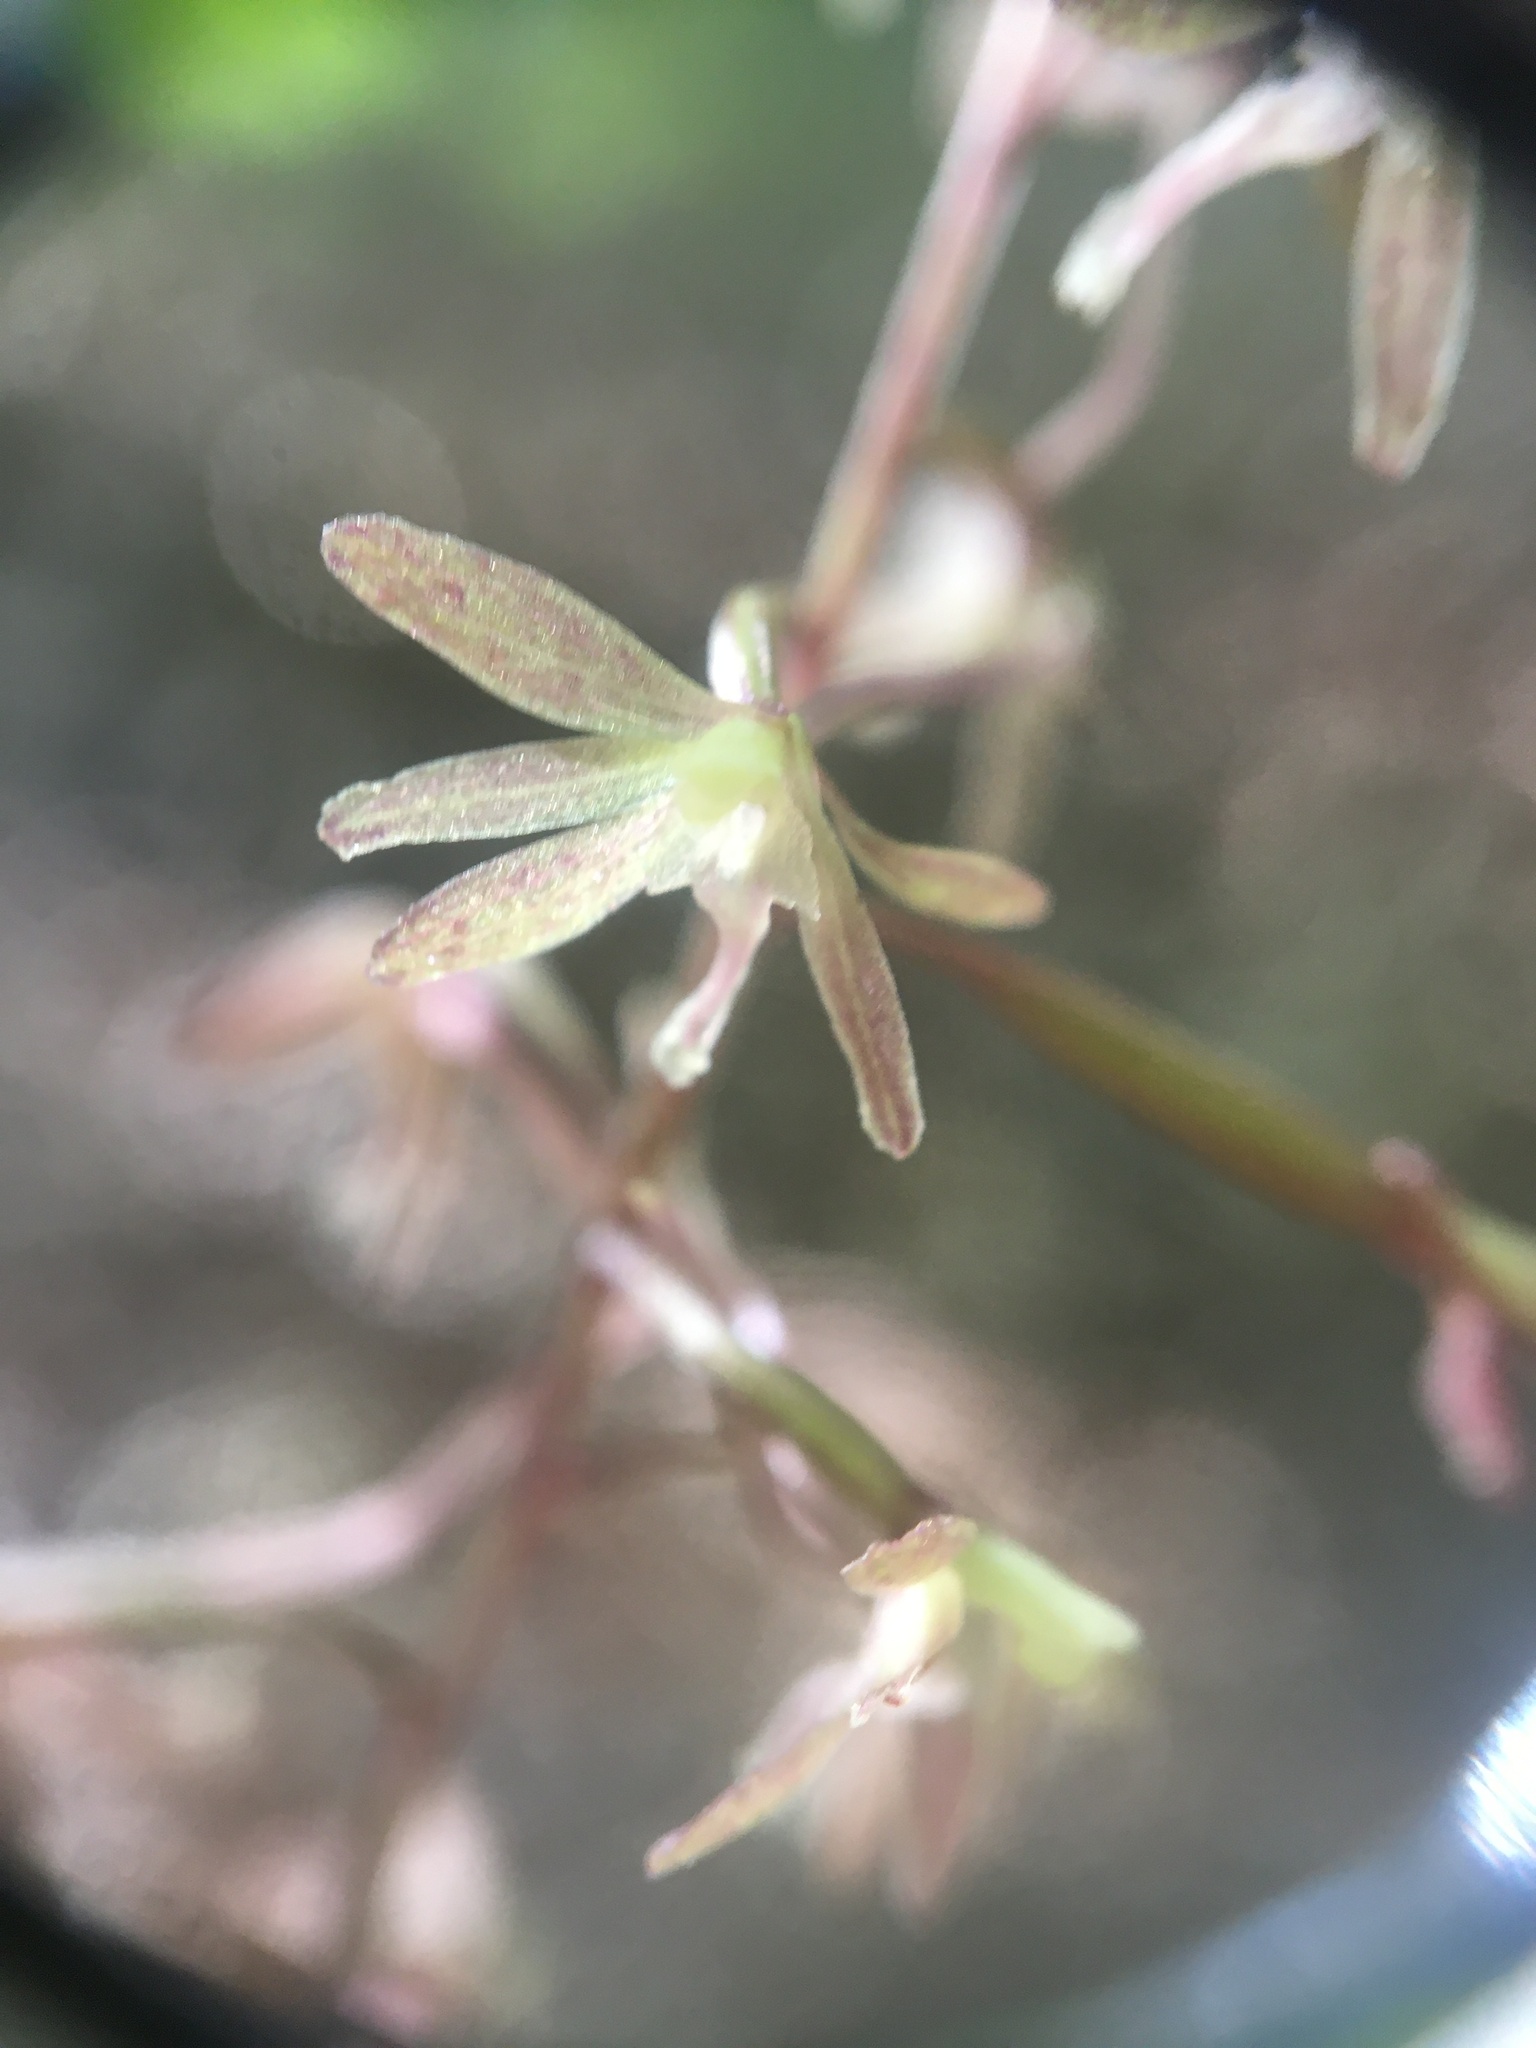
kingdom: Plantae
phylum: Tracheophyta
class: Liliopsida
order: Asparagales
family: Orchidaceae
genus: Tipularia
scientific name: Tipularia discolor
